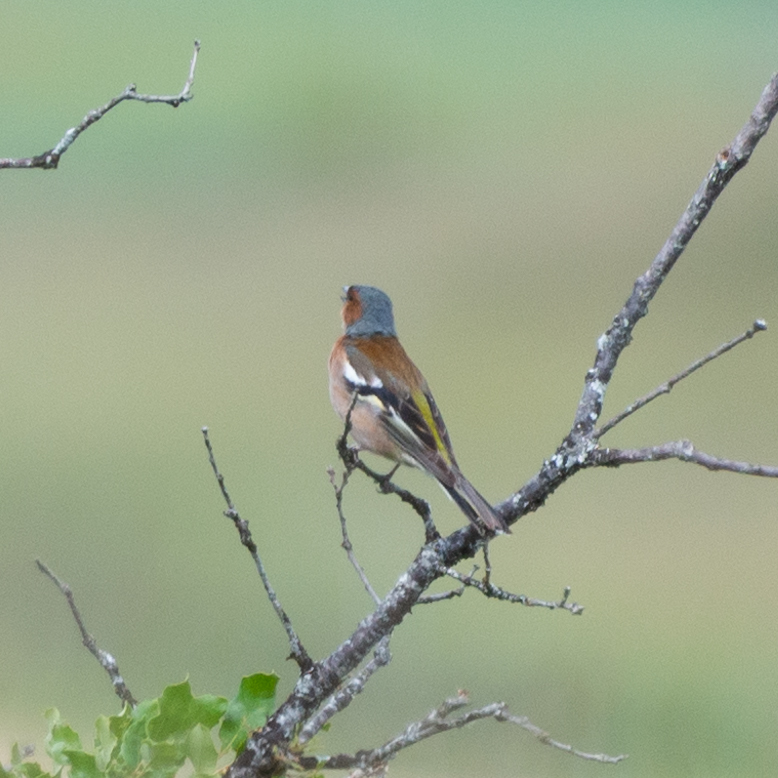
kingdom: Animalia
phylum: Chordata
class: Aves
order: Passeriformes
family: Fringillidae
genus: Fringilla
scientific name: Fringilla coelebs
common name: Common chaffinch
